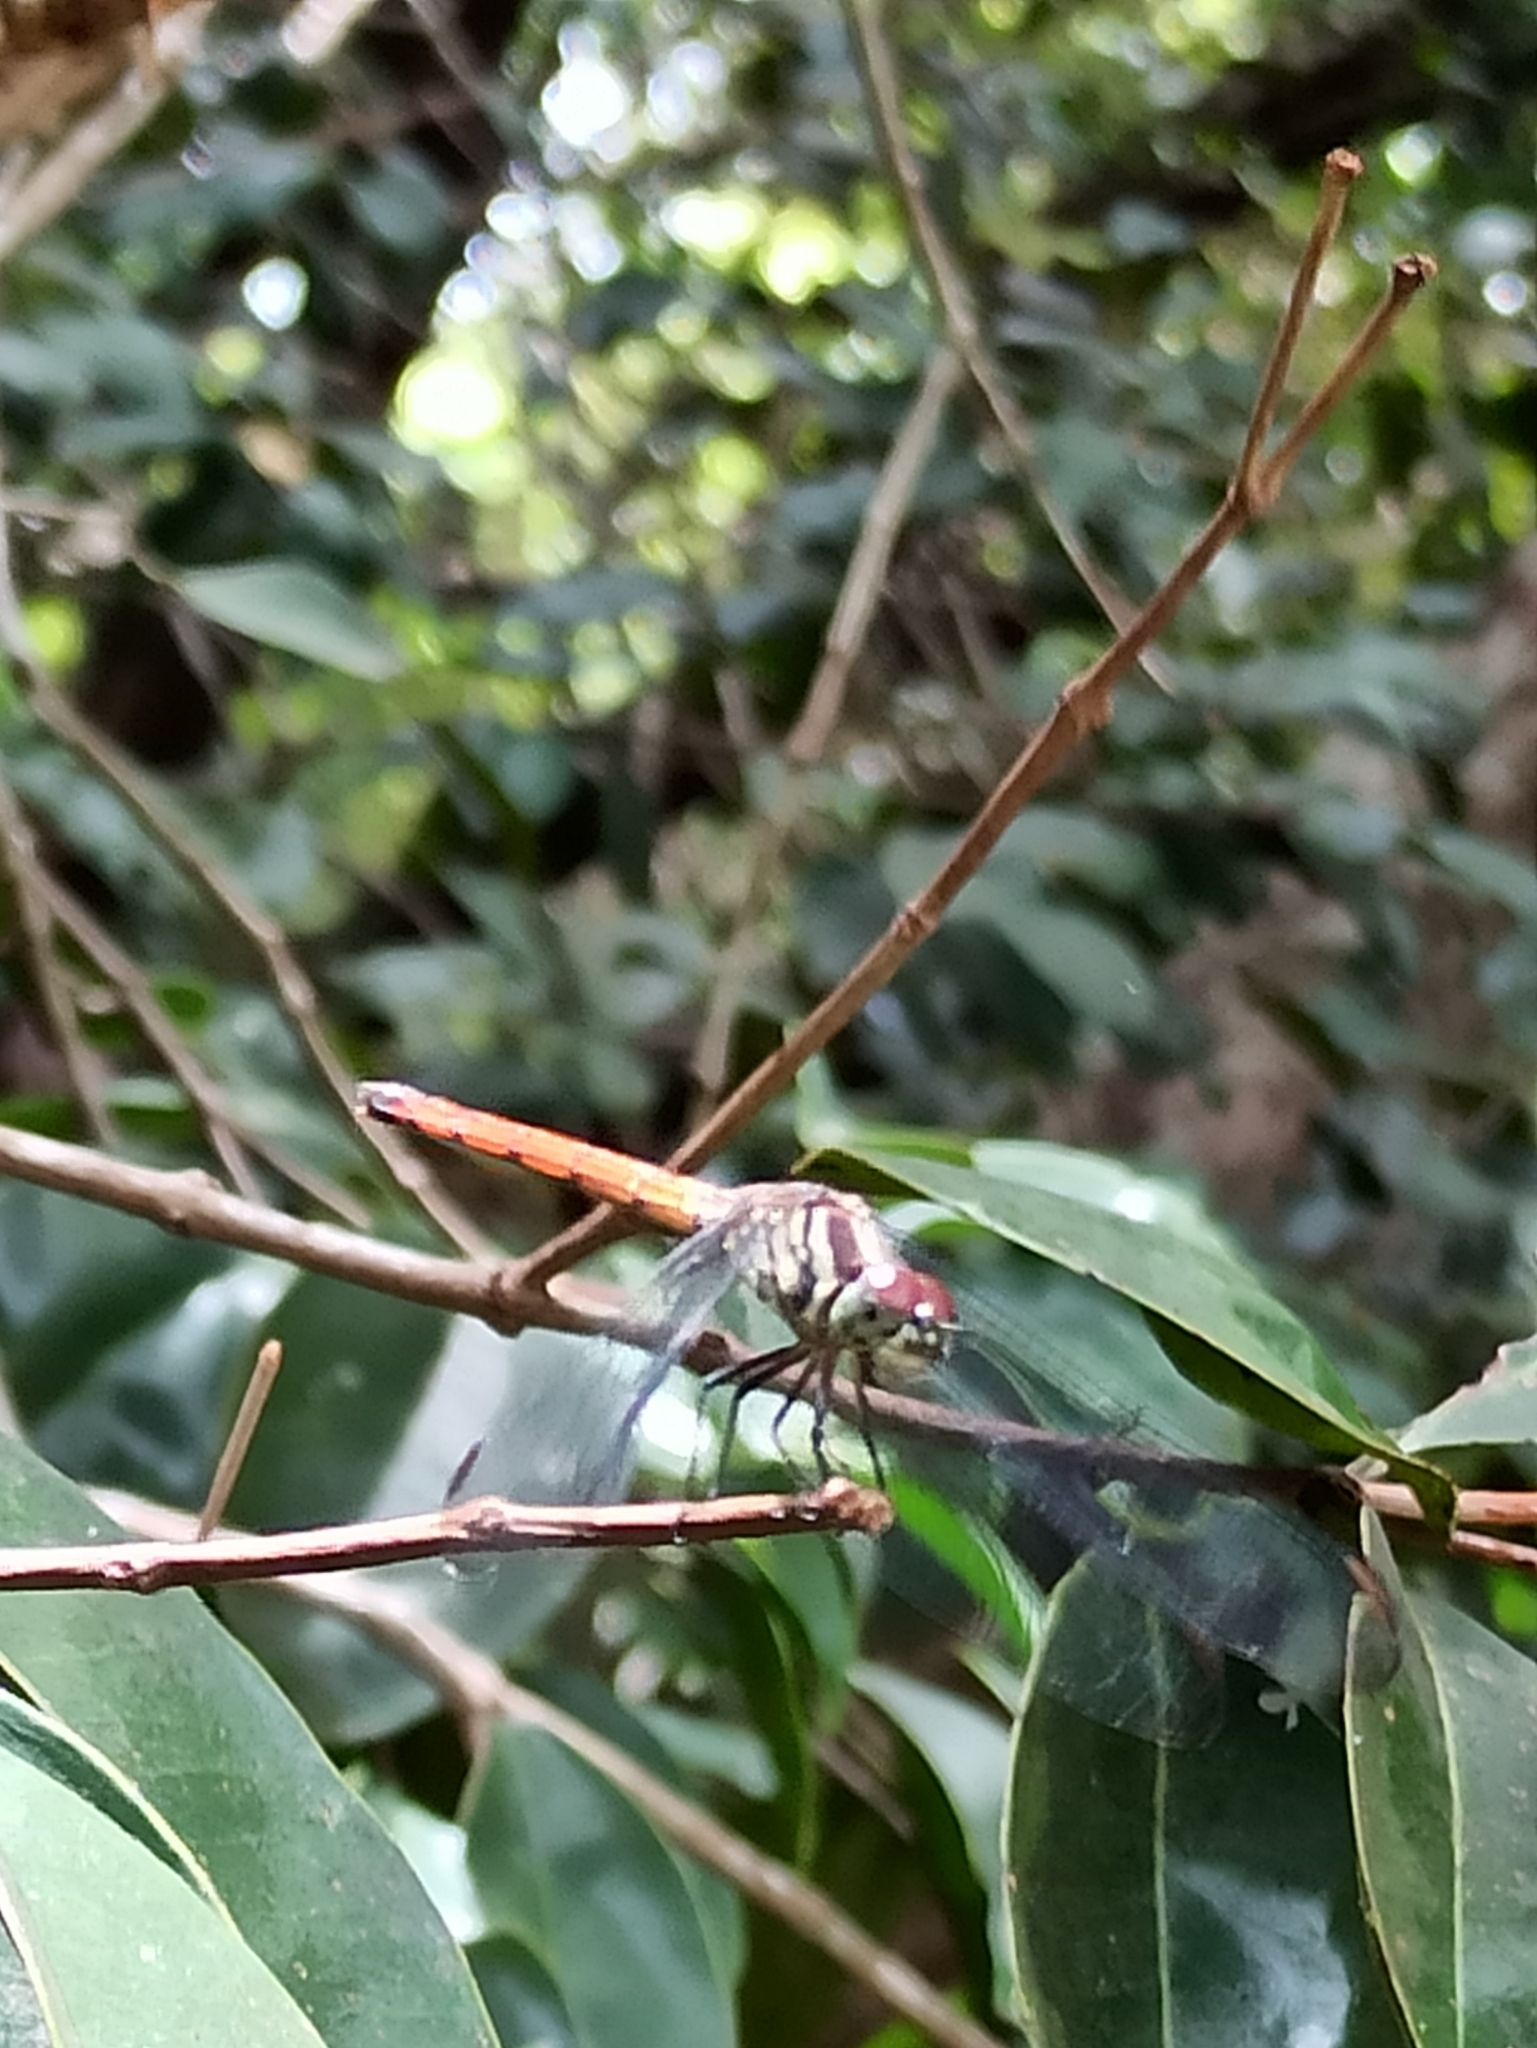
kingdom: Animalia
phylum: Arthropoda
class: Insecta
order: Odonata
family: Libellulidae
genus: Lathrecista
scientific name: Lathrecista asiatica
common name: Scarlet grenadier
